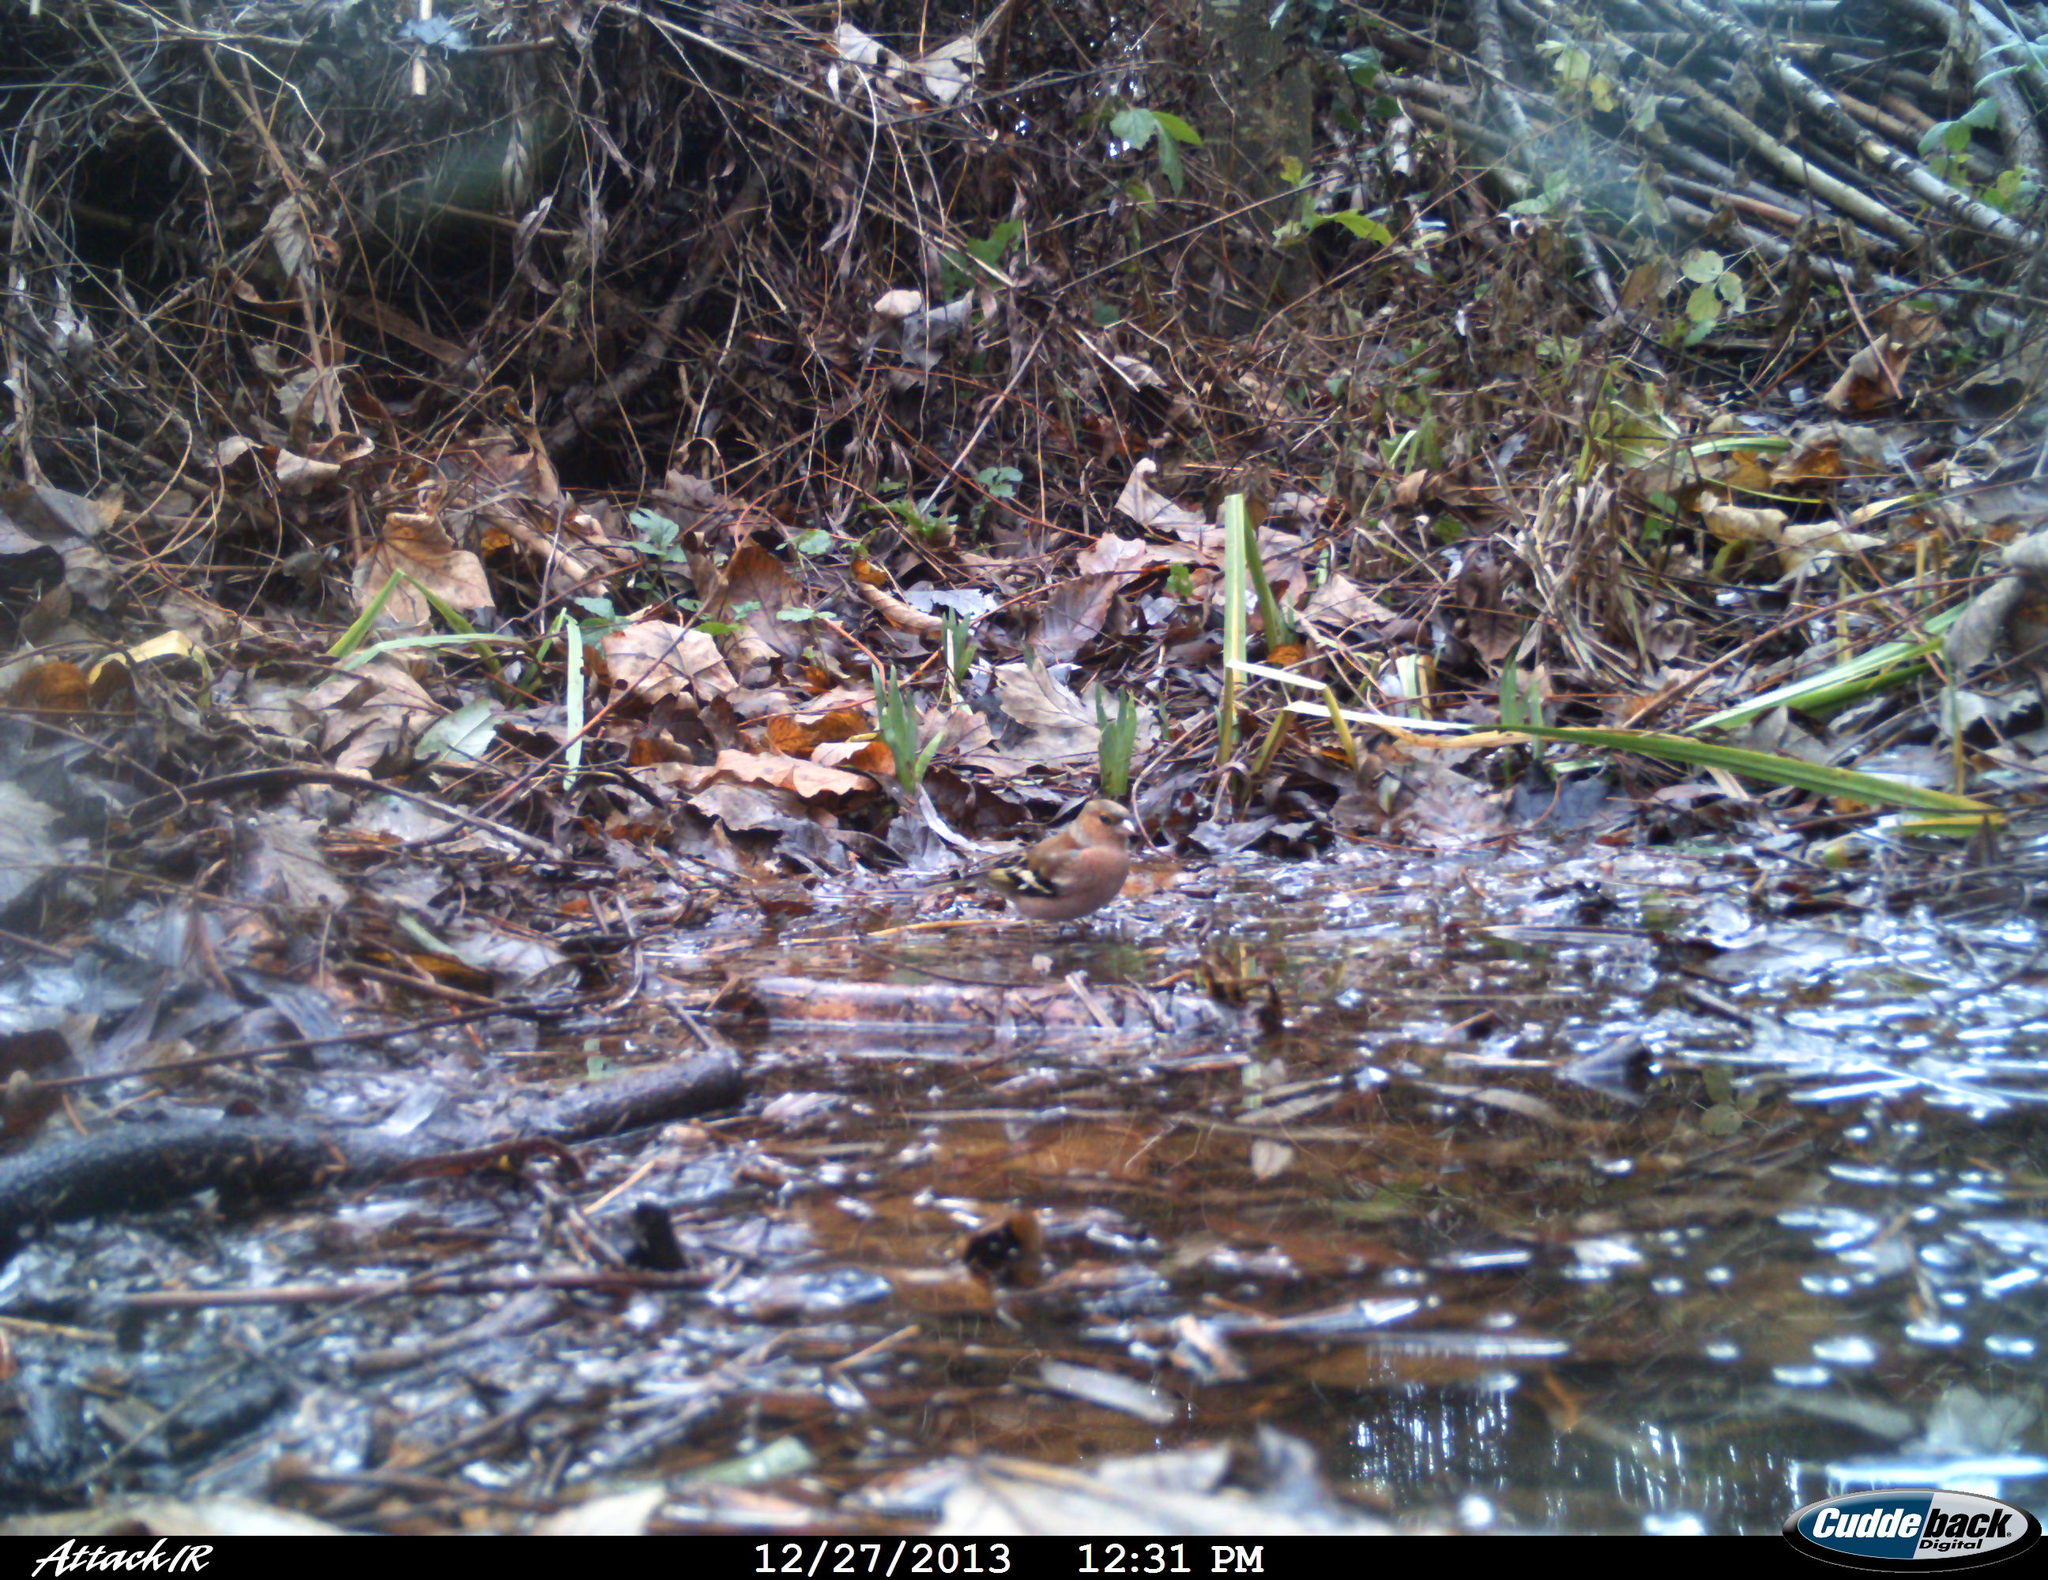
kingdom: Animalia
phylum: Chordata
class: Aves
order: Passeriformes
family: Fringillidae
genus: Fringilla
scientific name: Fringilla coelebs
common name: Common chaffinch
